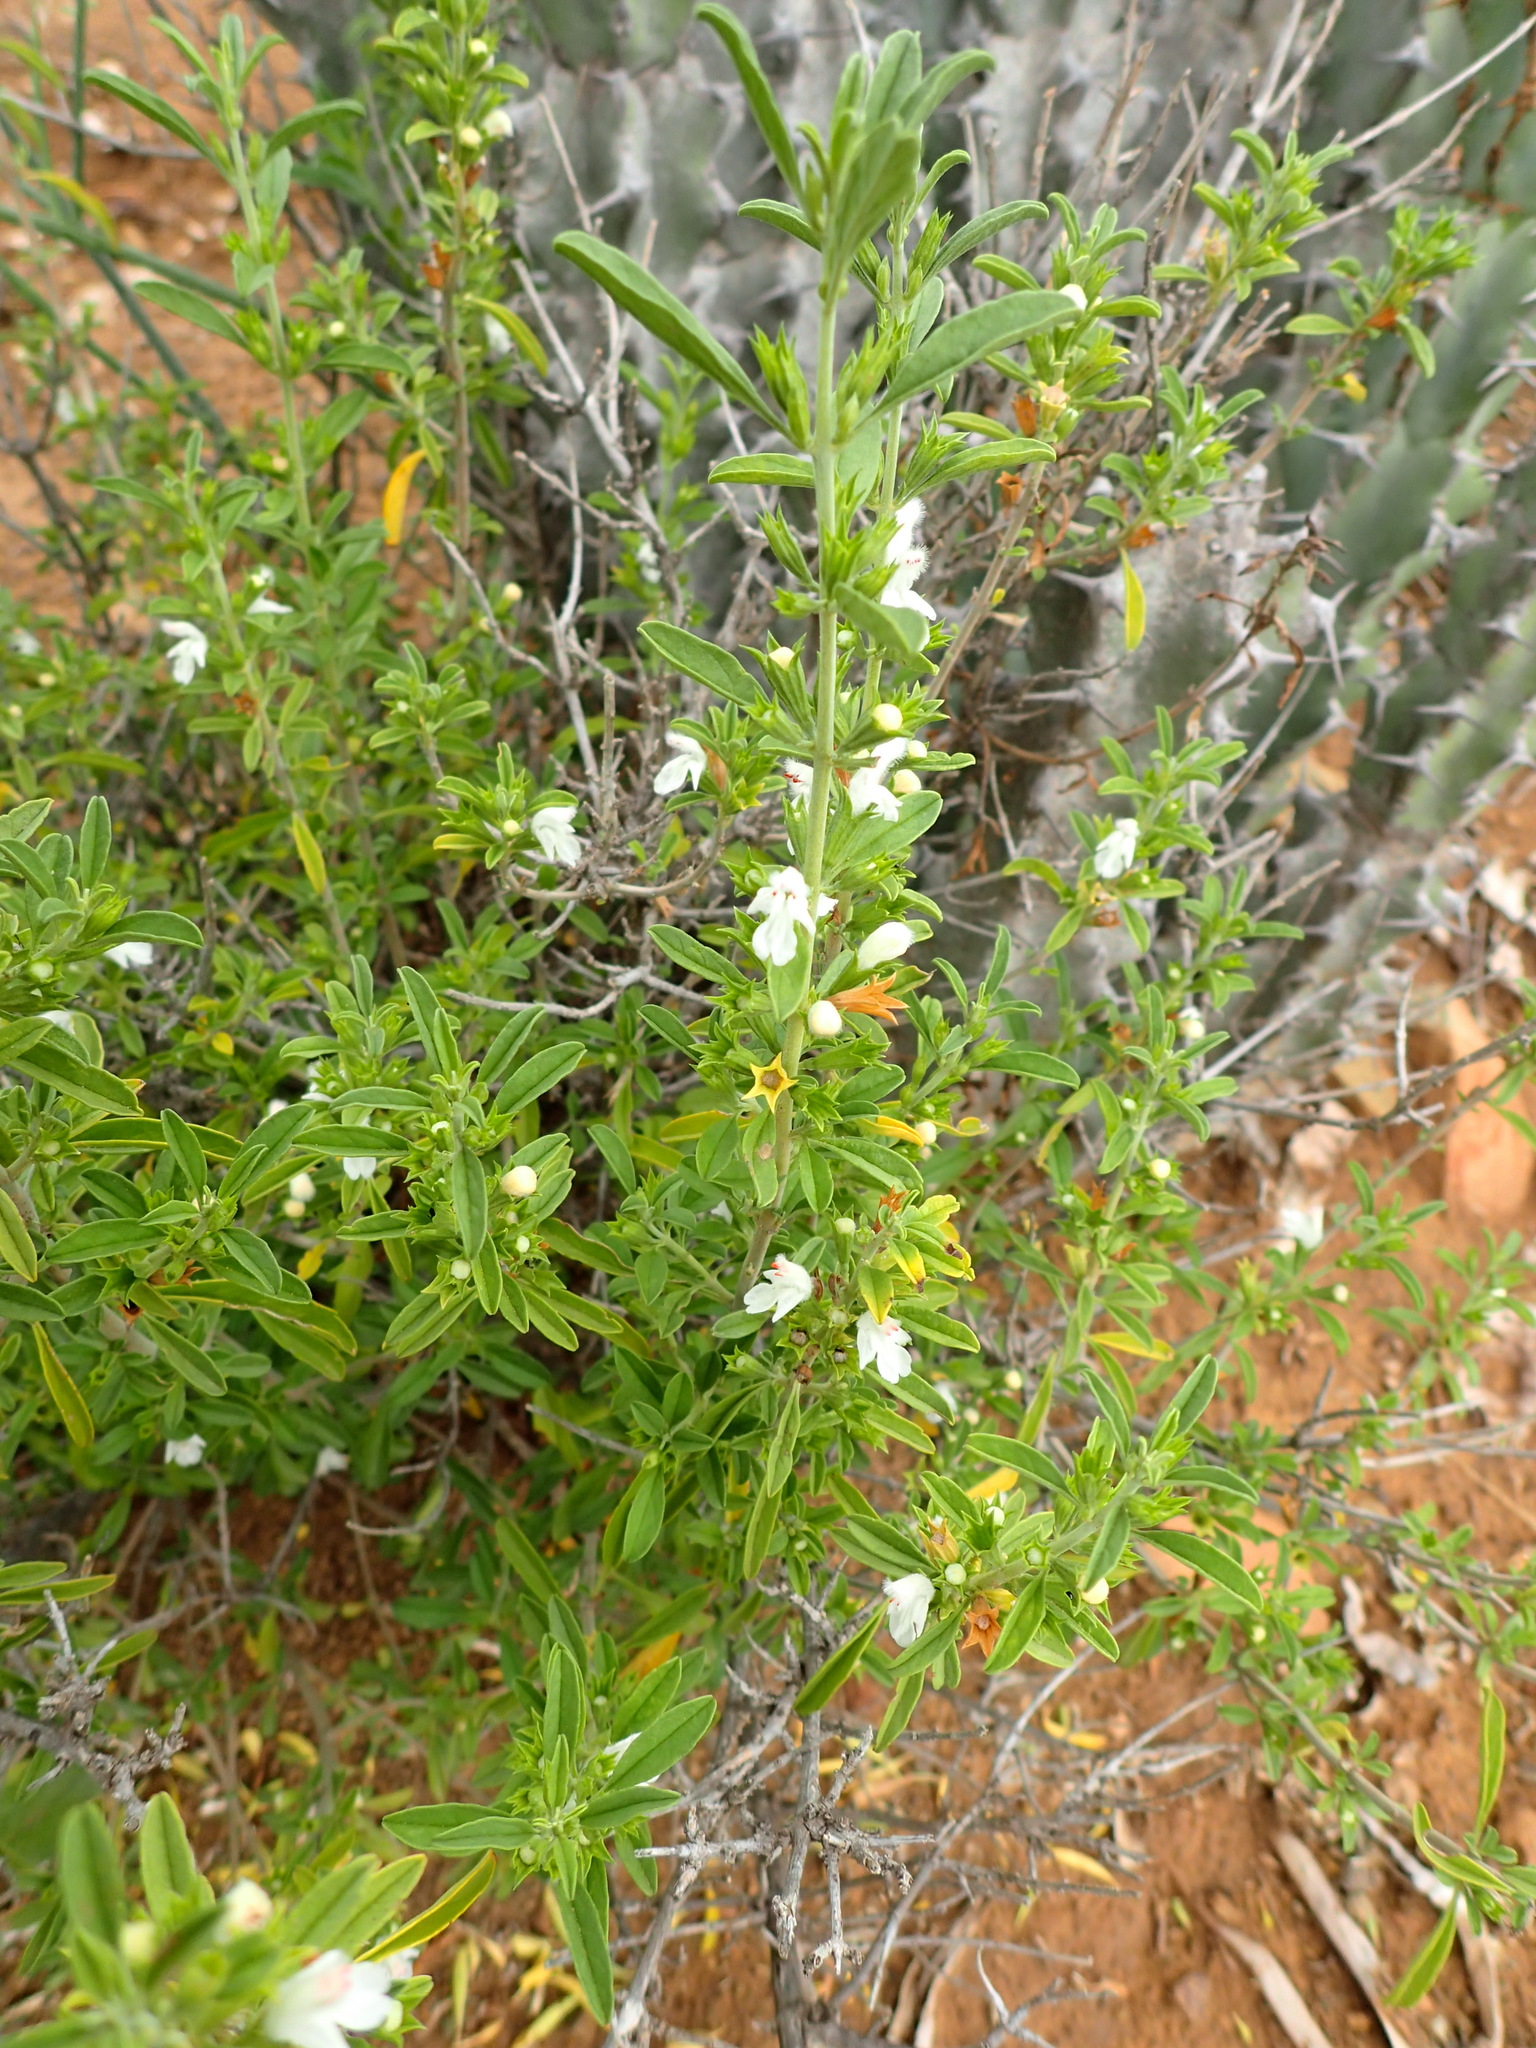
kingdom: Plantae
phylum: Tracheophyta
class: Magnoliopsida
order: Lamiales
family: Lamiaceae
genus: Leucas
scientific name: Leucas capensis
